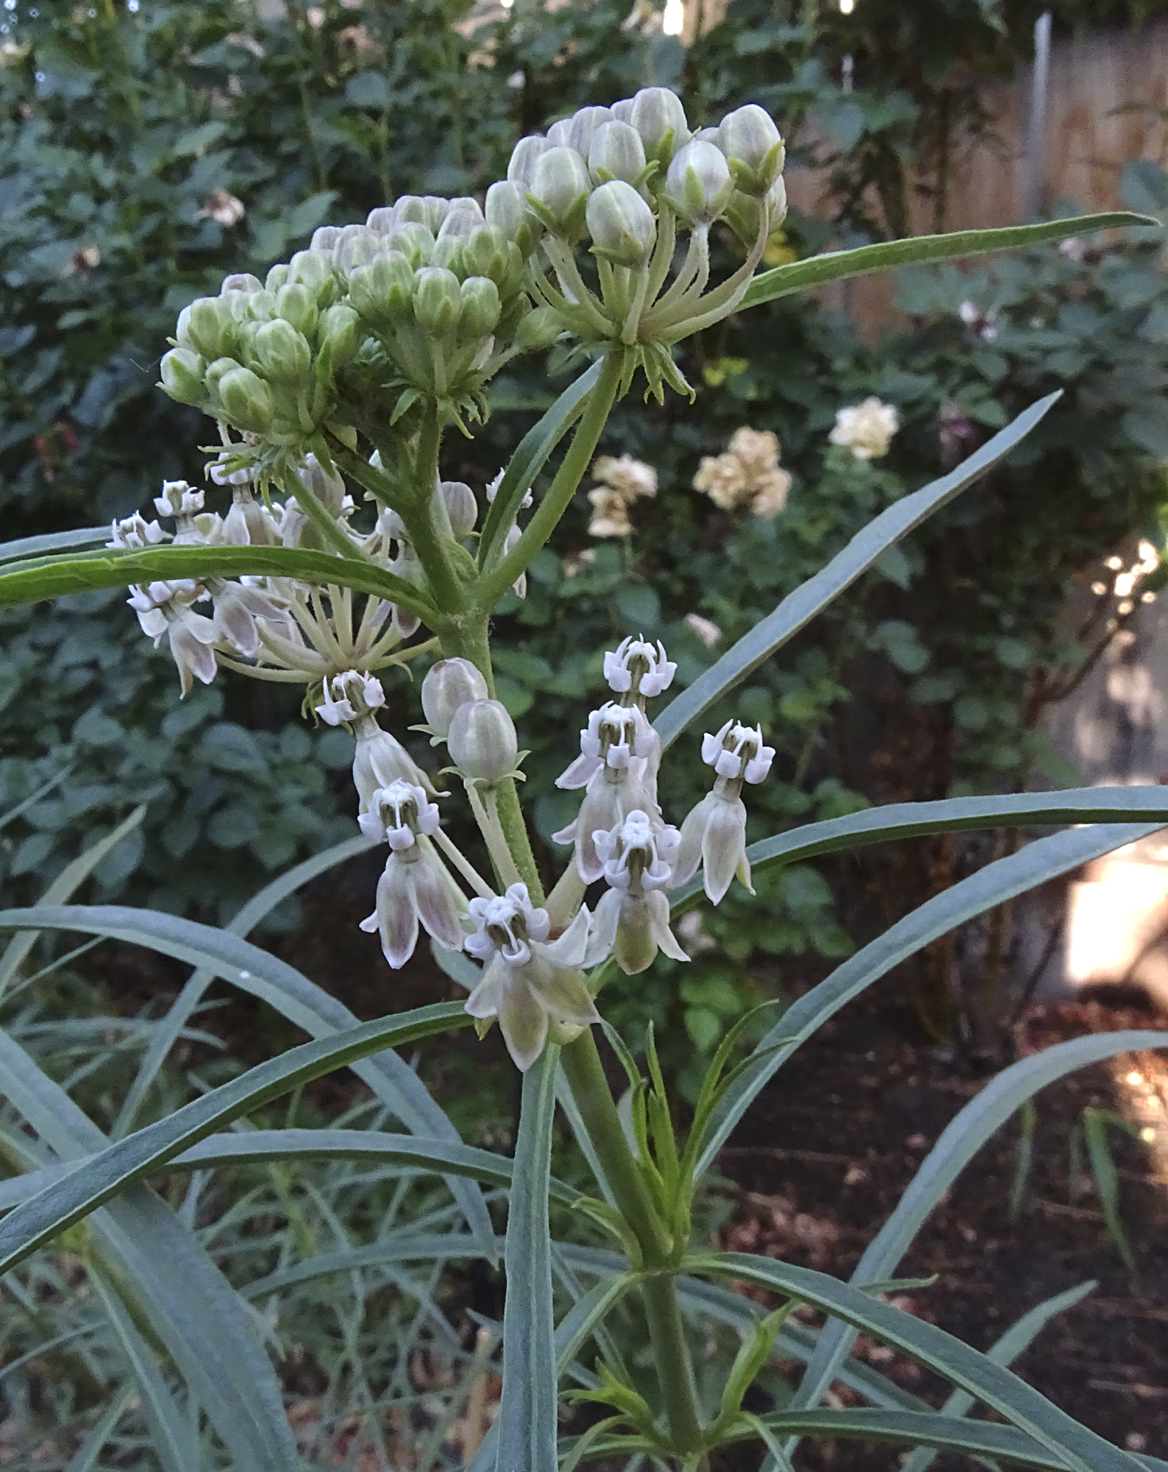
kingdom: Plantae
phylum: Tracheophyta
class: Magnoliopsida
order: Gentianales
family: Apocynaceae
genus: Asclepias
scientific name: Asclepias fascicularis
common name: Mexican milkweed
